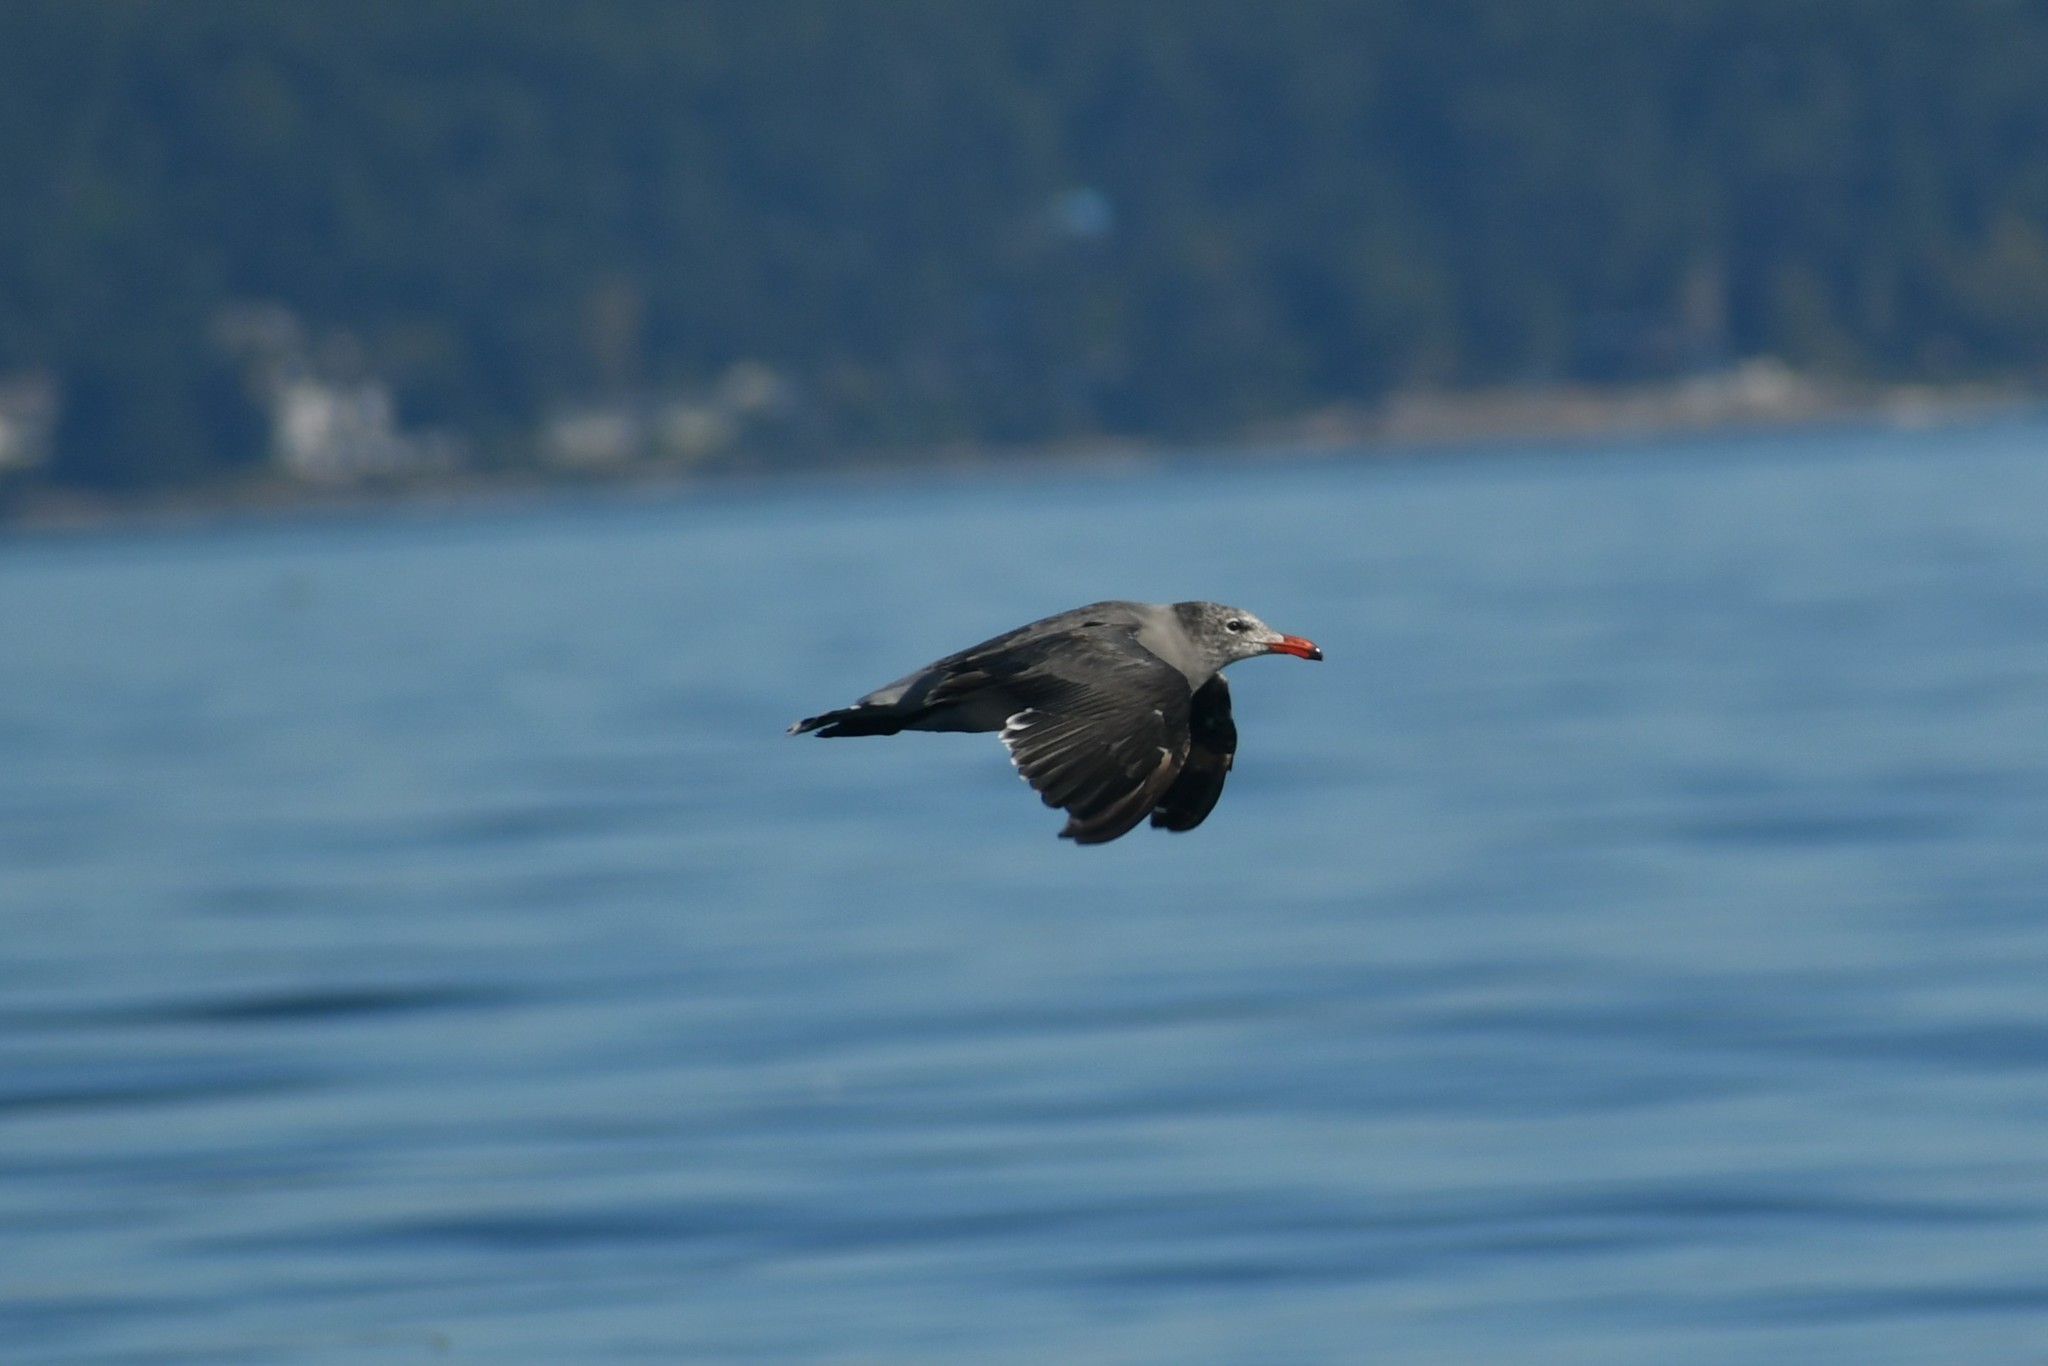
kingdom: Animalia
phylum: Chordata
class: Aves
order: Charadriiformes
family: Laridae
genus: Larus
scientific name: Larus heermanni
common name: Heermann's gull
